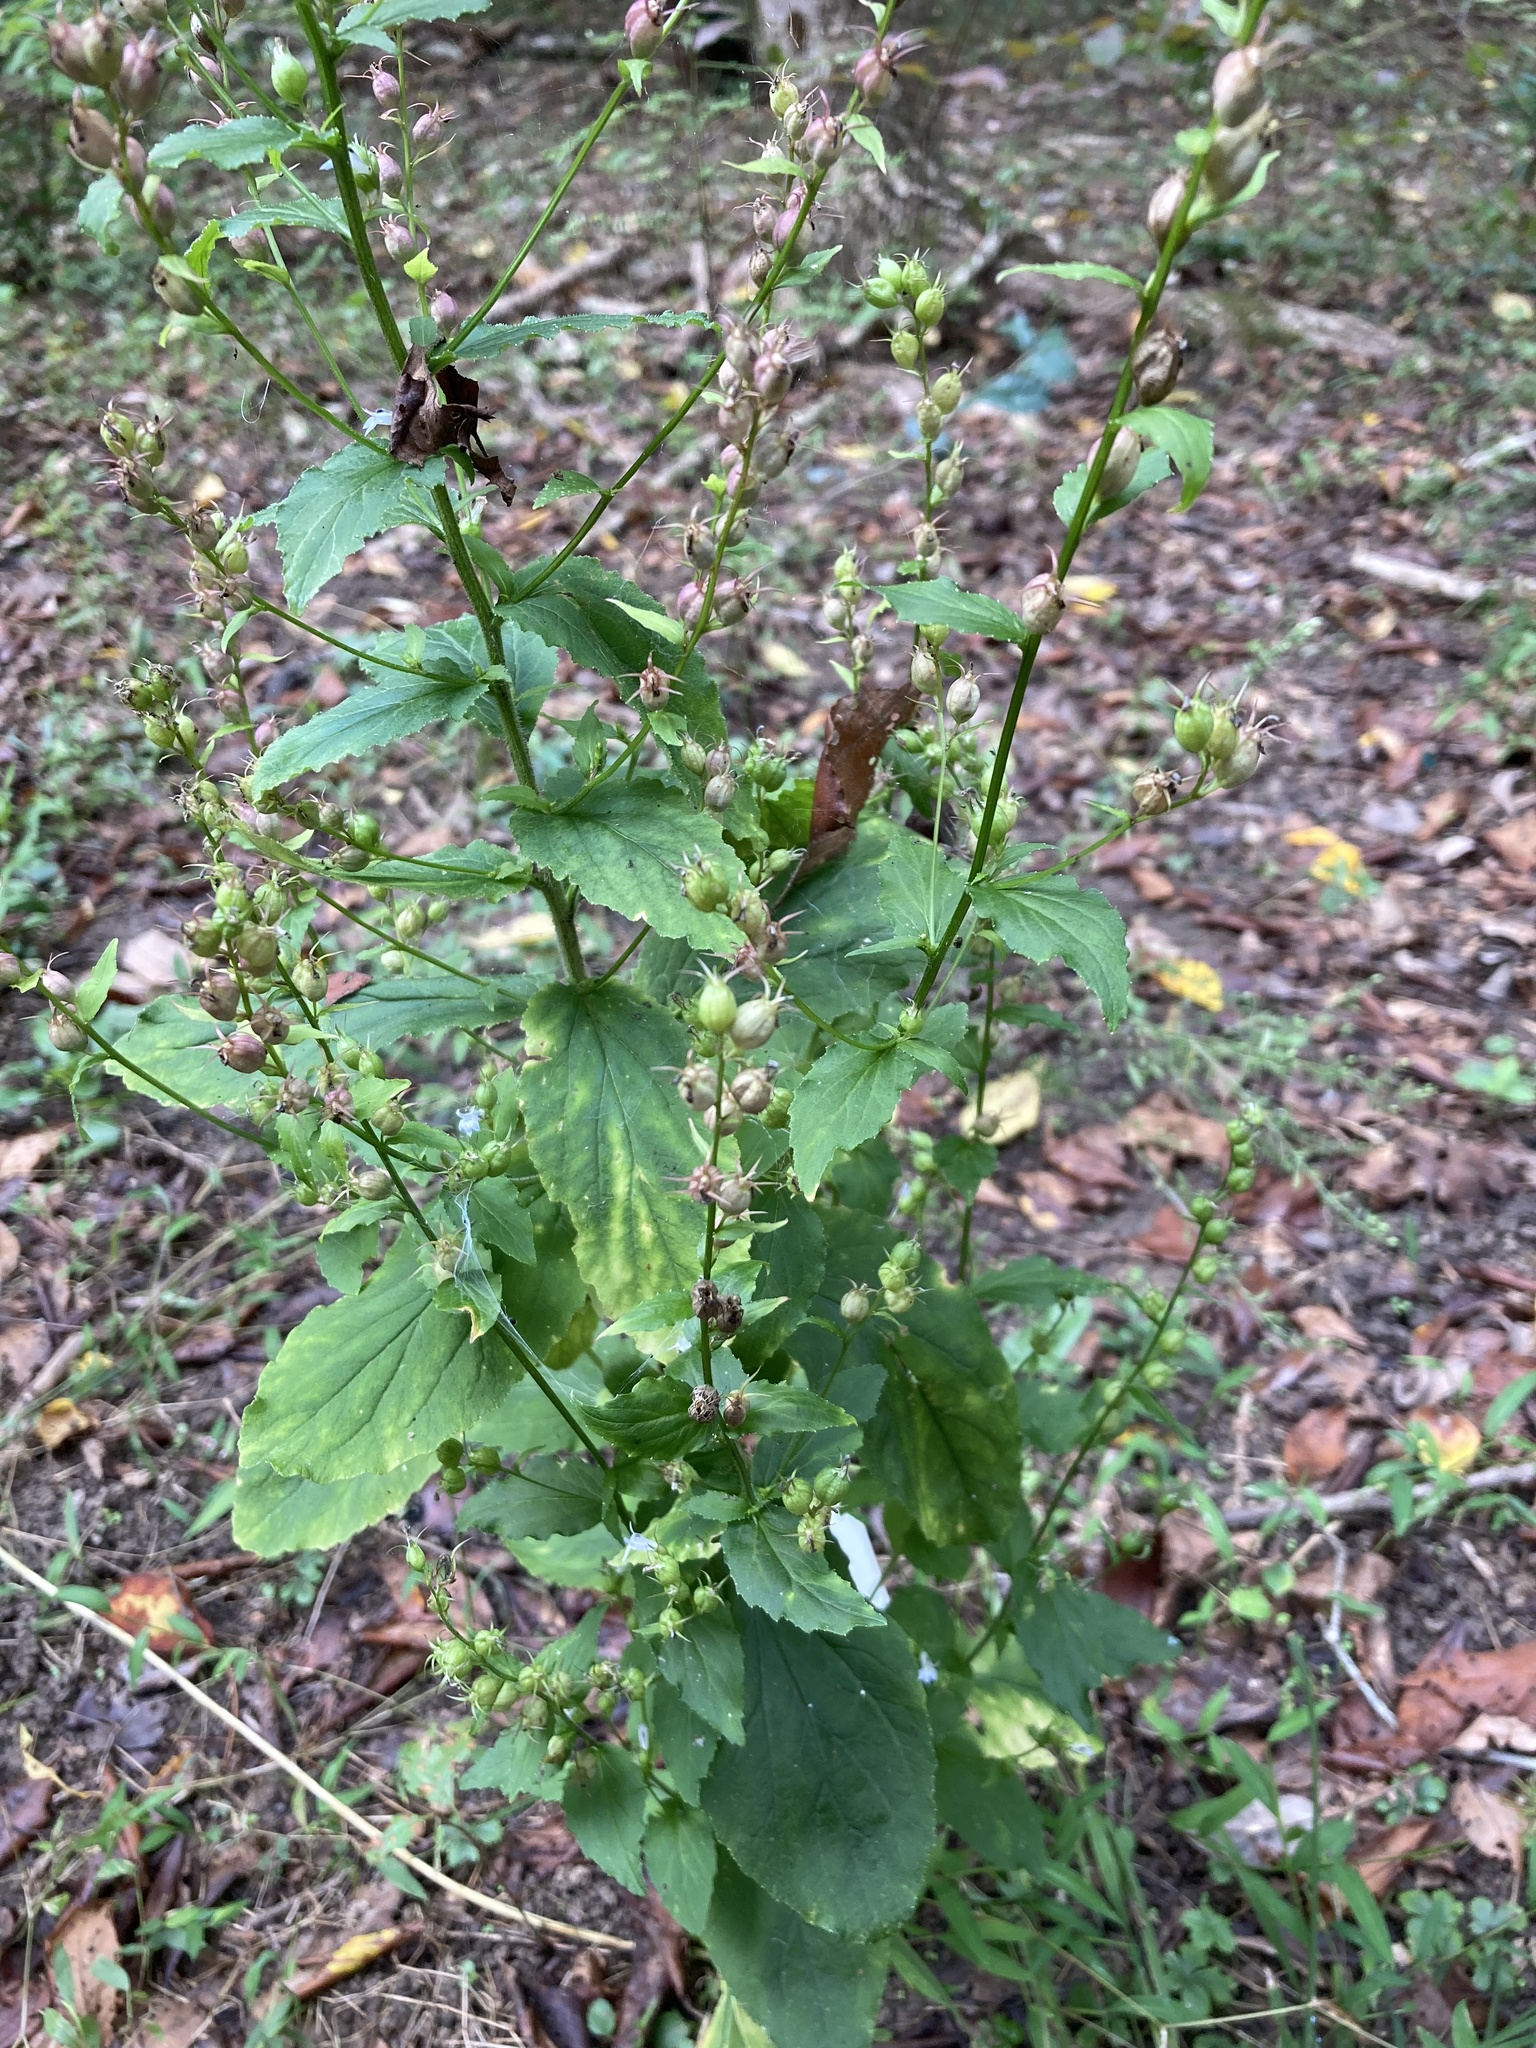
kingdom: Plantae
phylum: Tracheophyta
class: Magnoliopsida
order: Asterales
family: Campanulaceae
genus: Lobelia
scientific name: Lobelia inflata
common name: Indian tobacco
